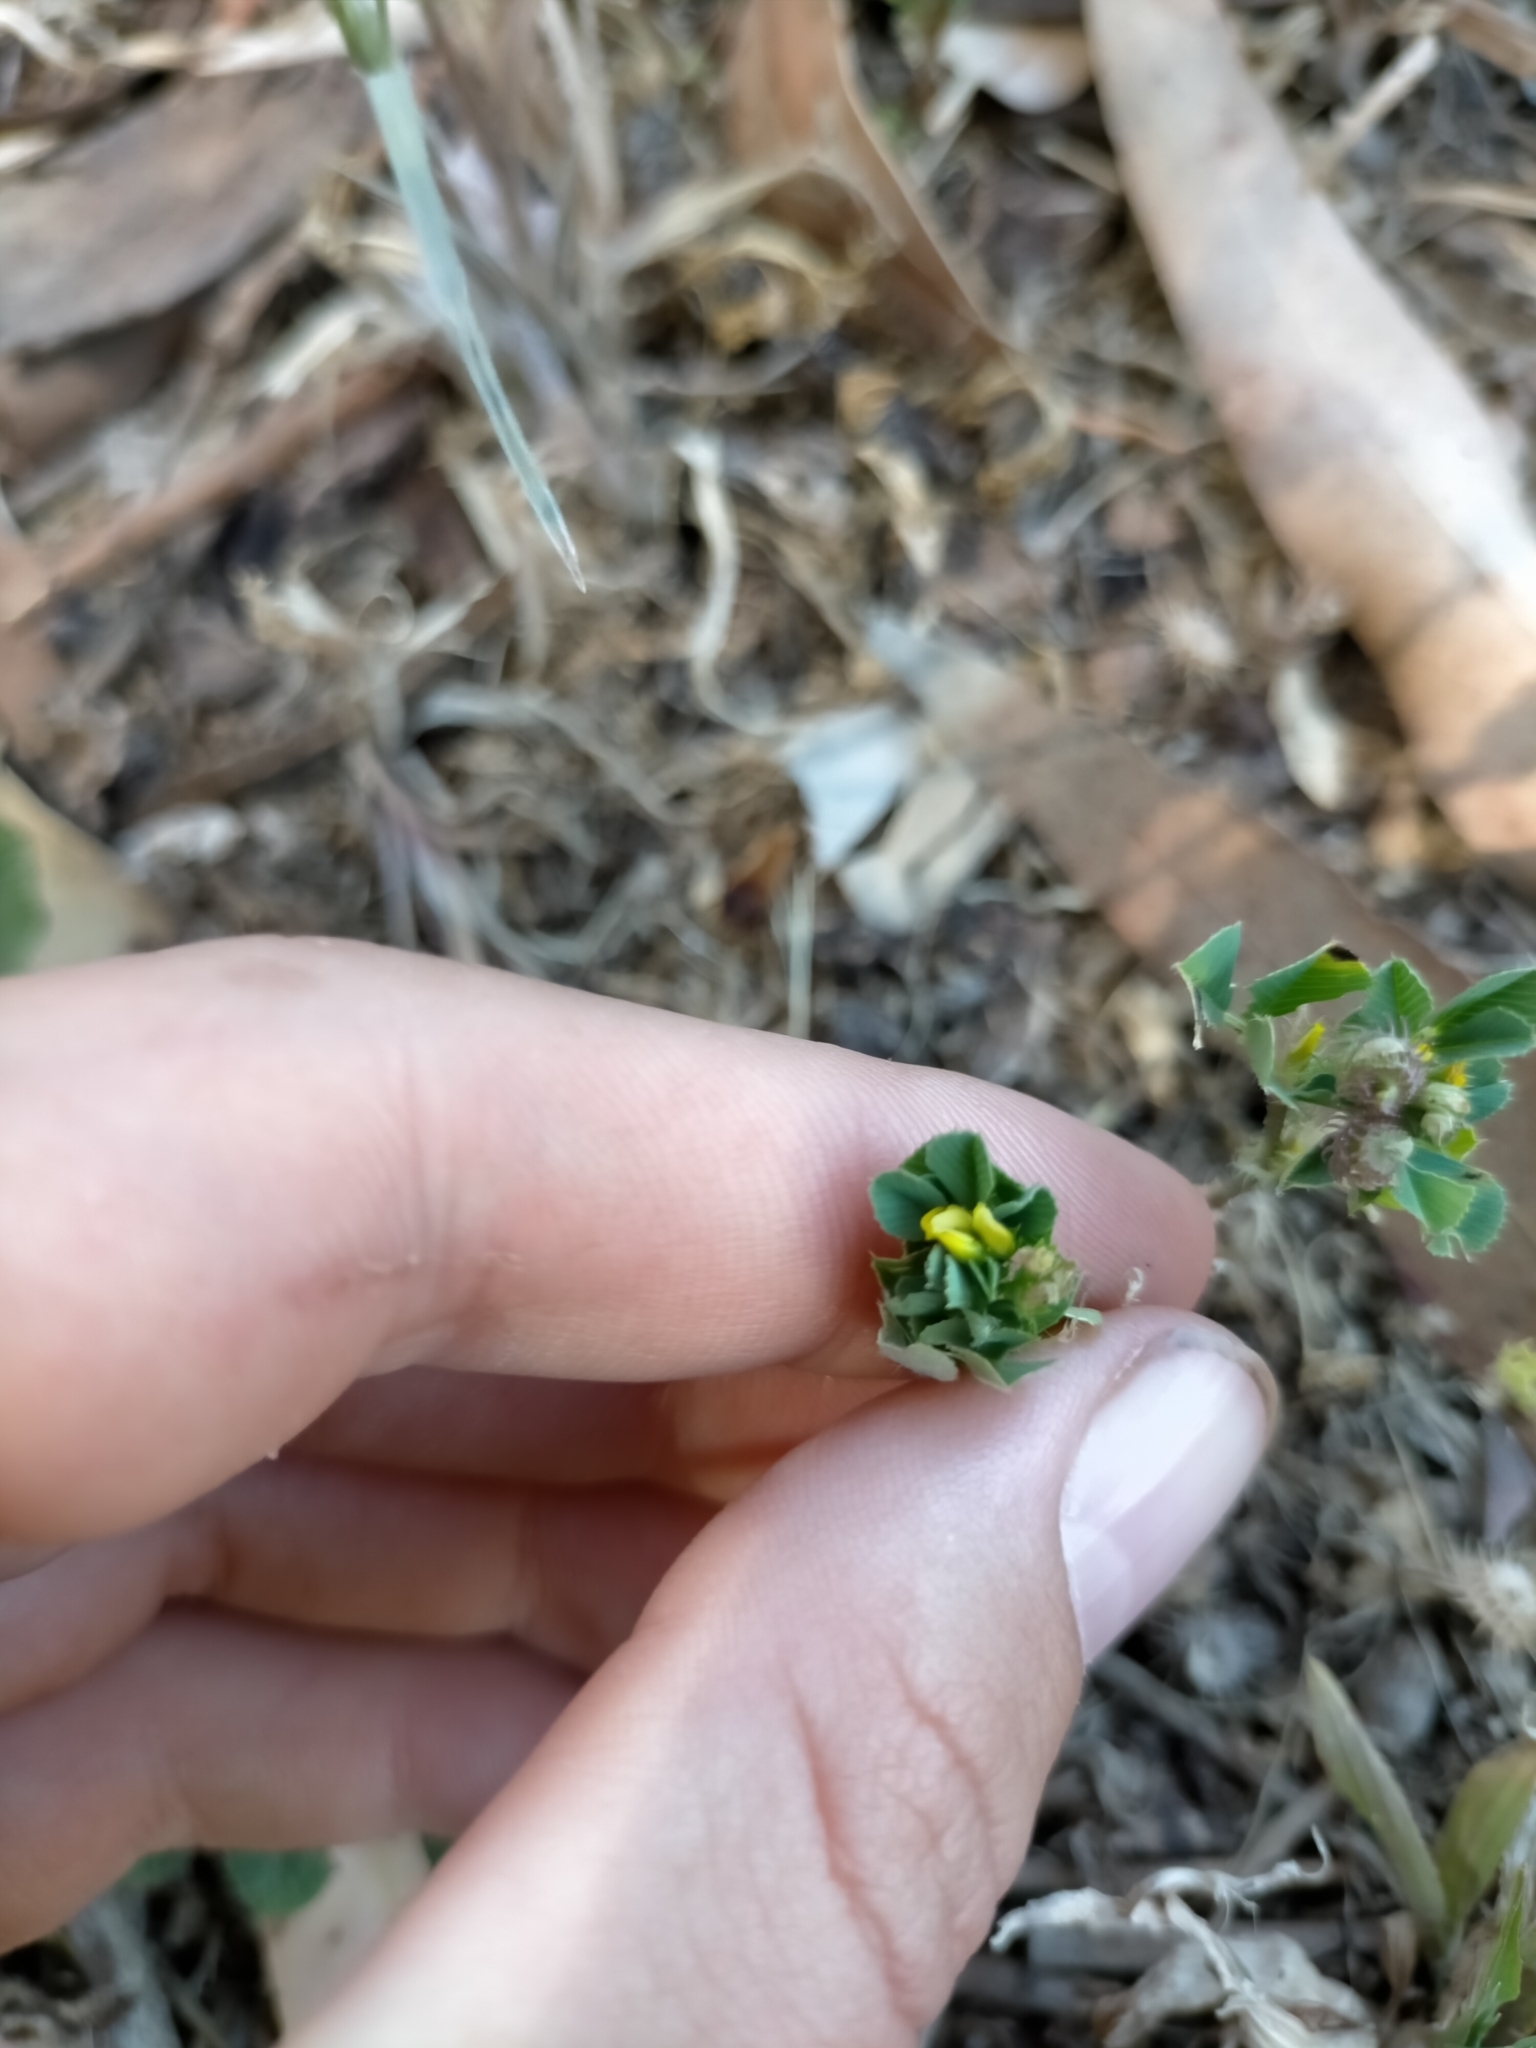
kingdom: Plantae
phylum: Tracheophyta
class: Magnoliopsida
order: Fabales
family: Fabaceae
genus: Medicago
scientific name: Medicago polymorpha
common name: Burclover
